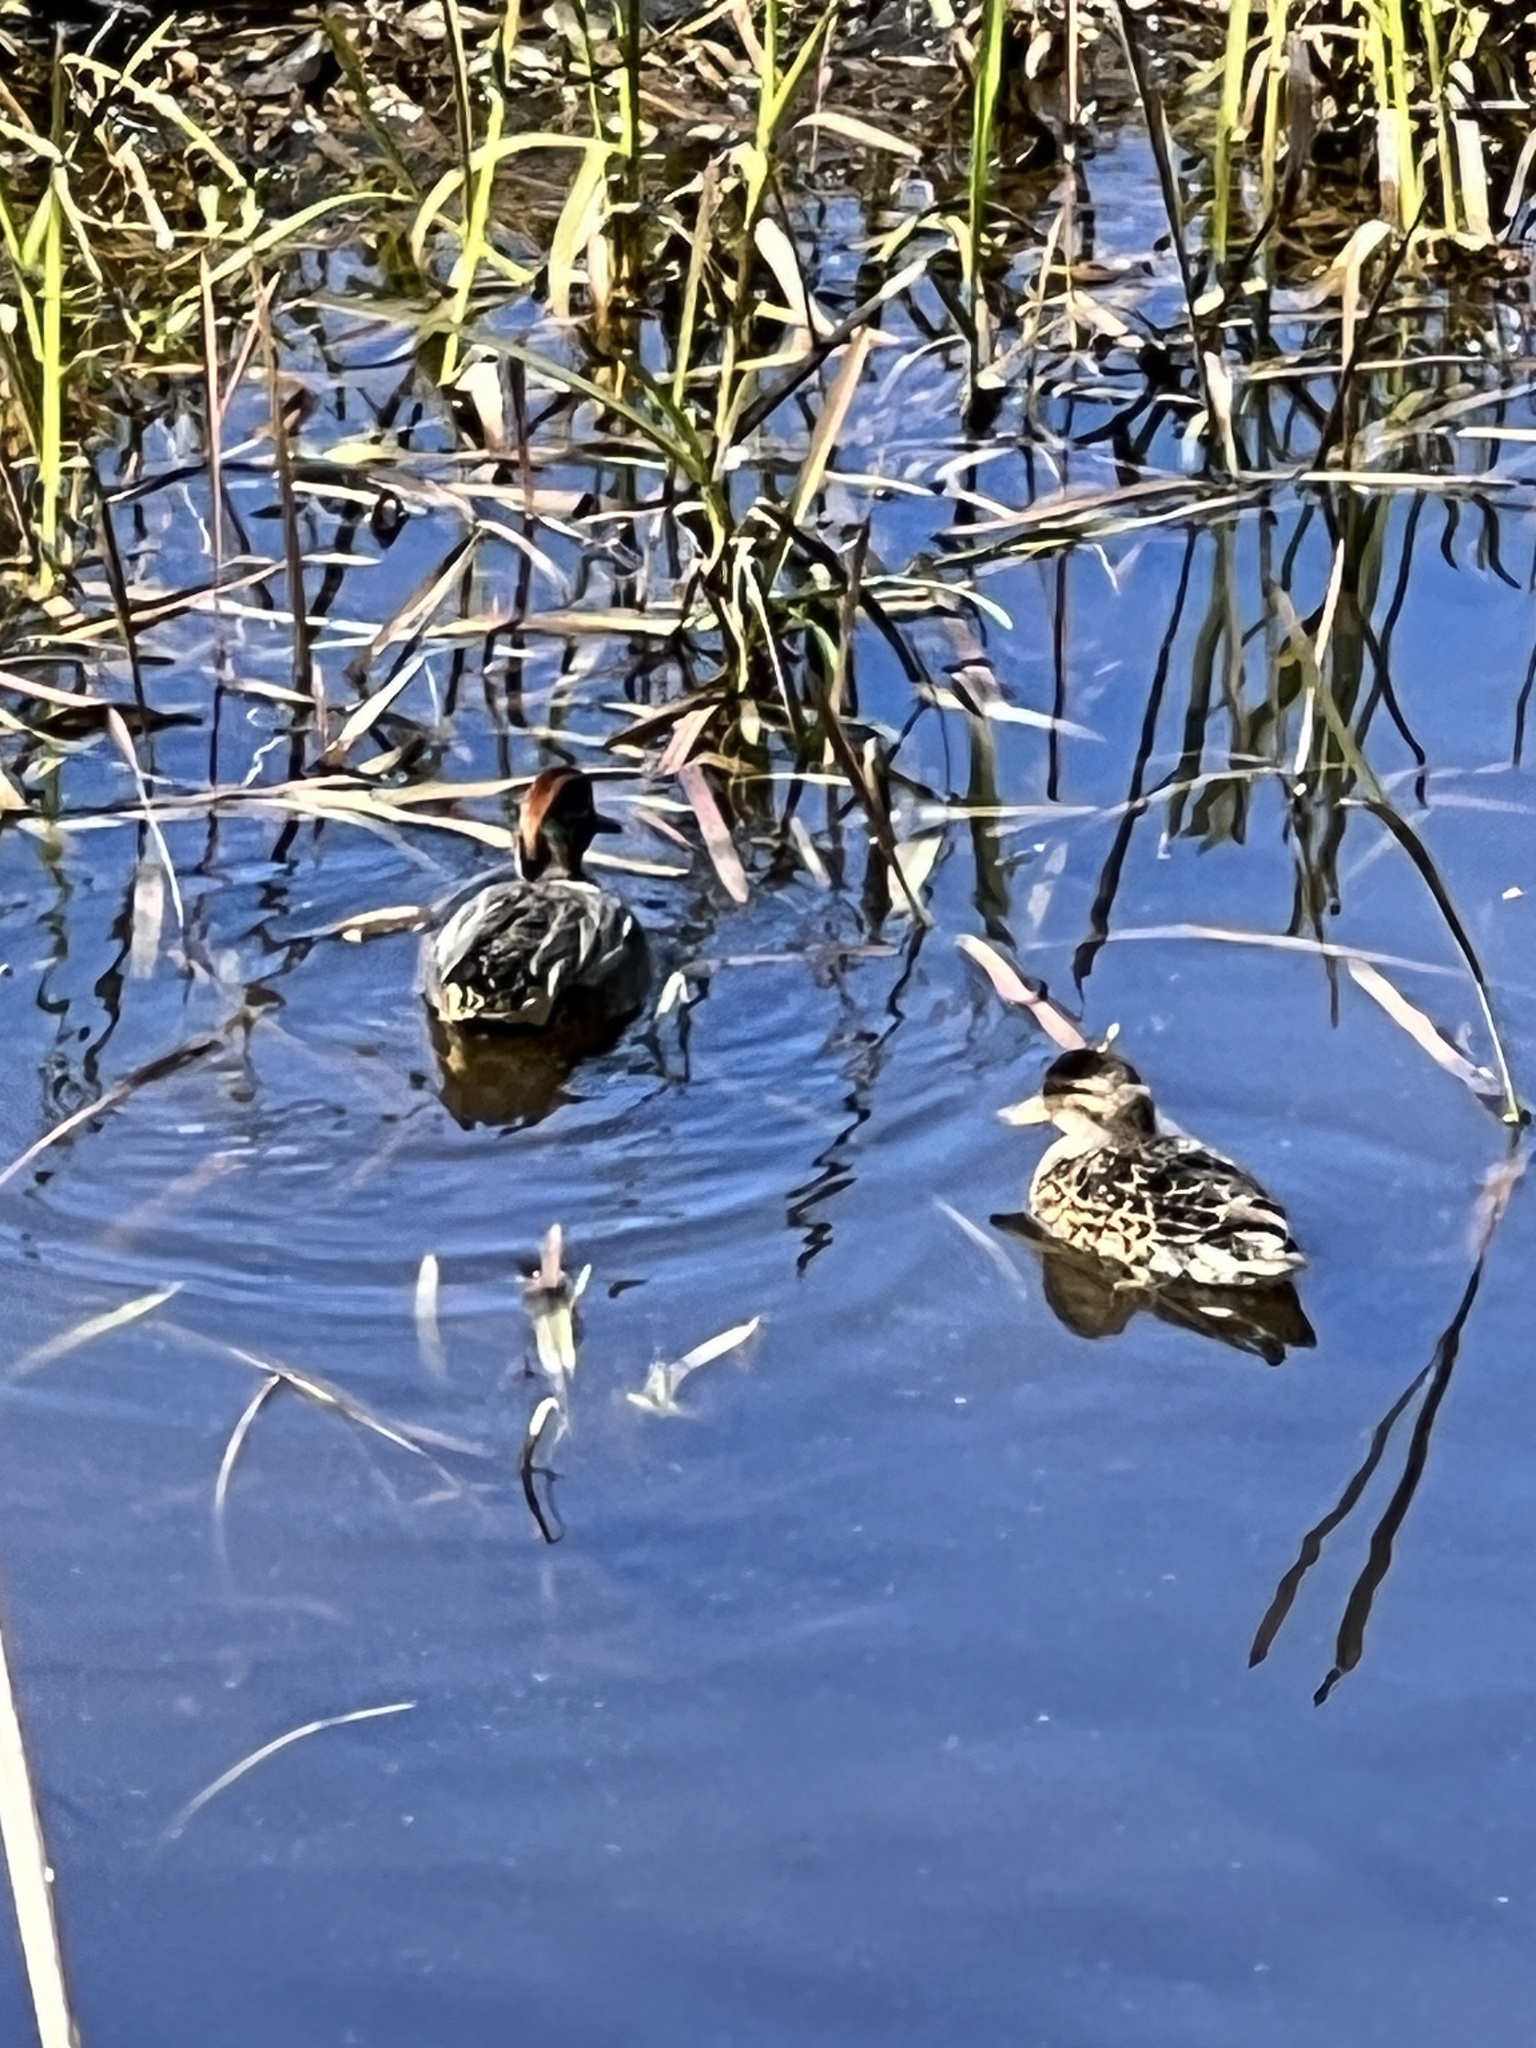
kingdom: Animalia
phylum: Chordata
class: Aves
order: Anseriformes
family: Anatidae
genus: Anas
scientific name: Anas crecca
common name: Eurasian teal
